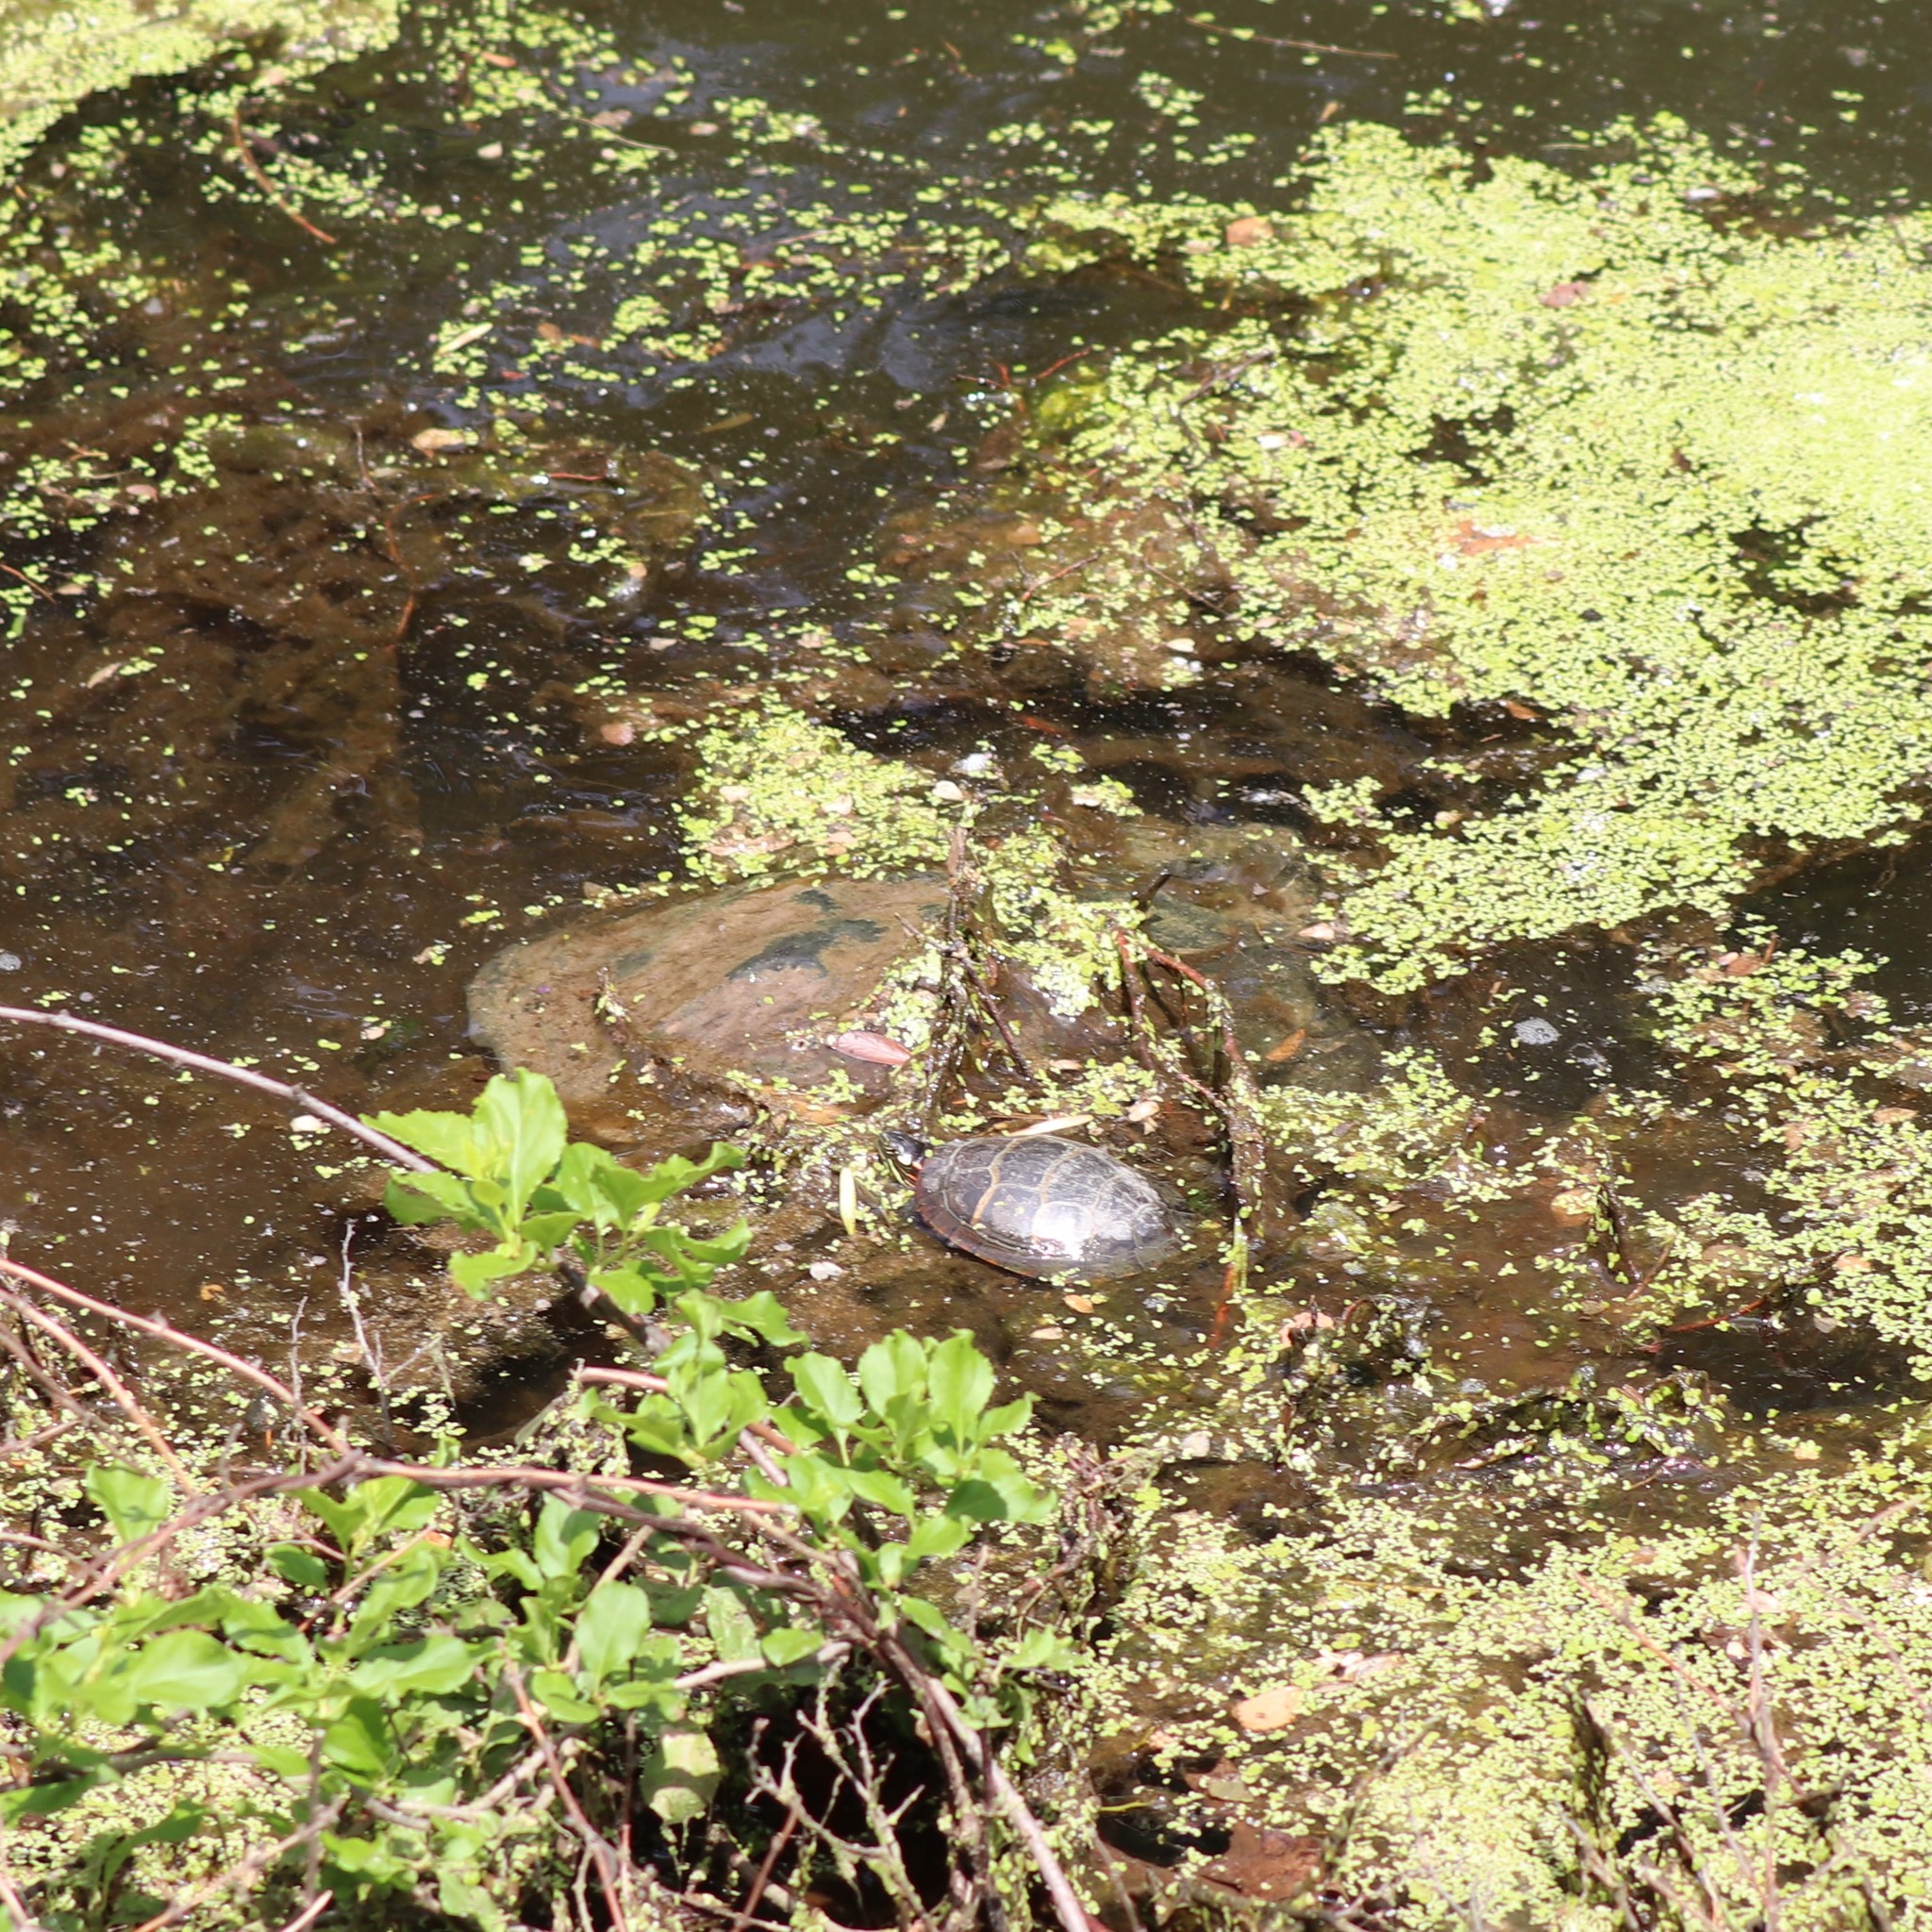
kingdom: Animalia
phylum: Chordata
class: Testudines
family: Chelydridae
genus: Chelydra
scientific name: Chelydra serpentina
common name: Common snapping turtle
